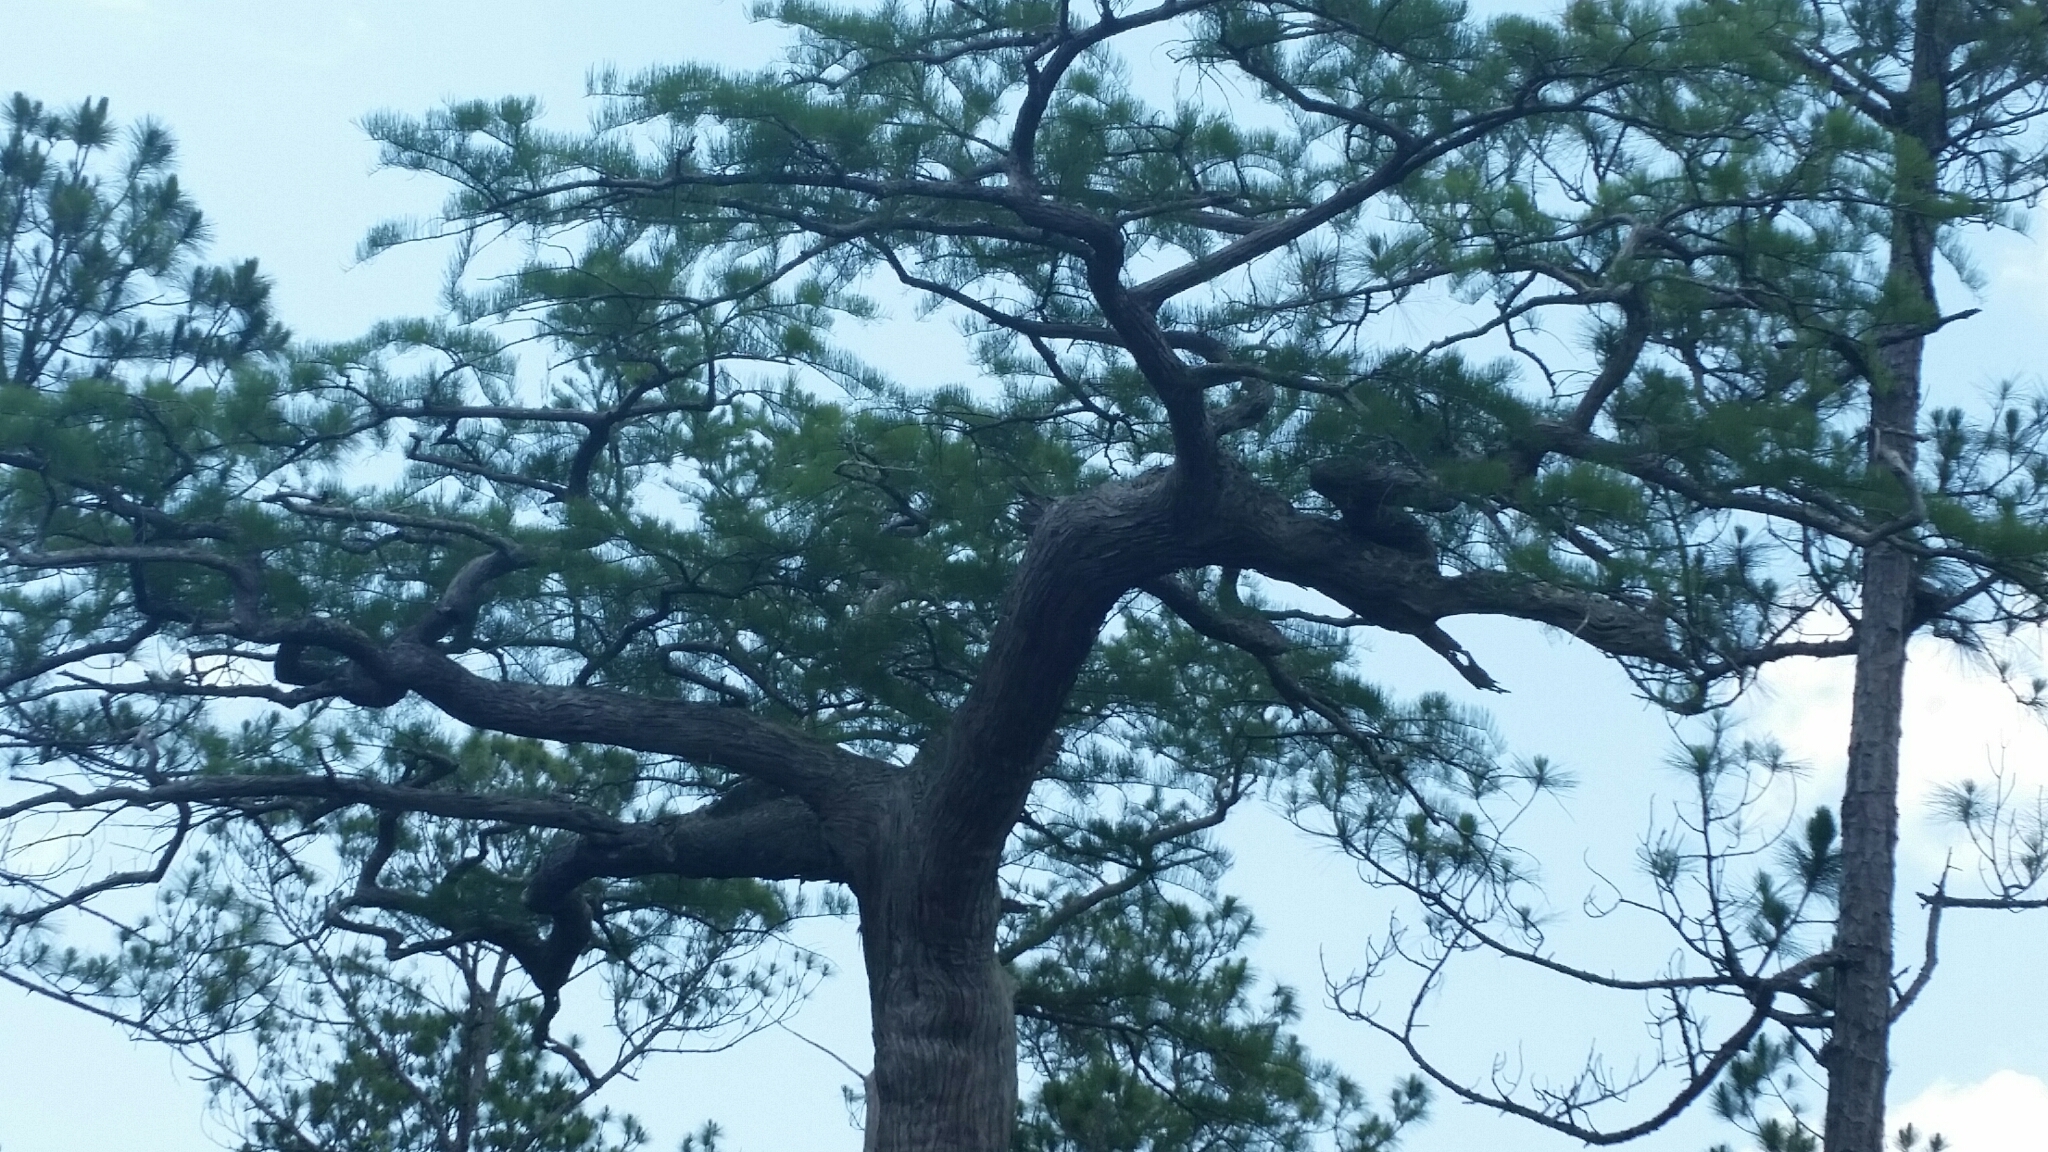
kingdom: Plantae
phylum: Tracheophyta
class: Pinopsida
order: Pinales
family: Cupressaceae
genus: Taxodium
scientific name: Taxodium distichum
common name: Bald cypress
